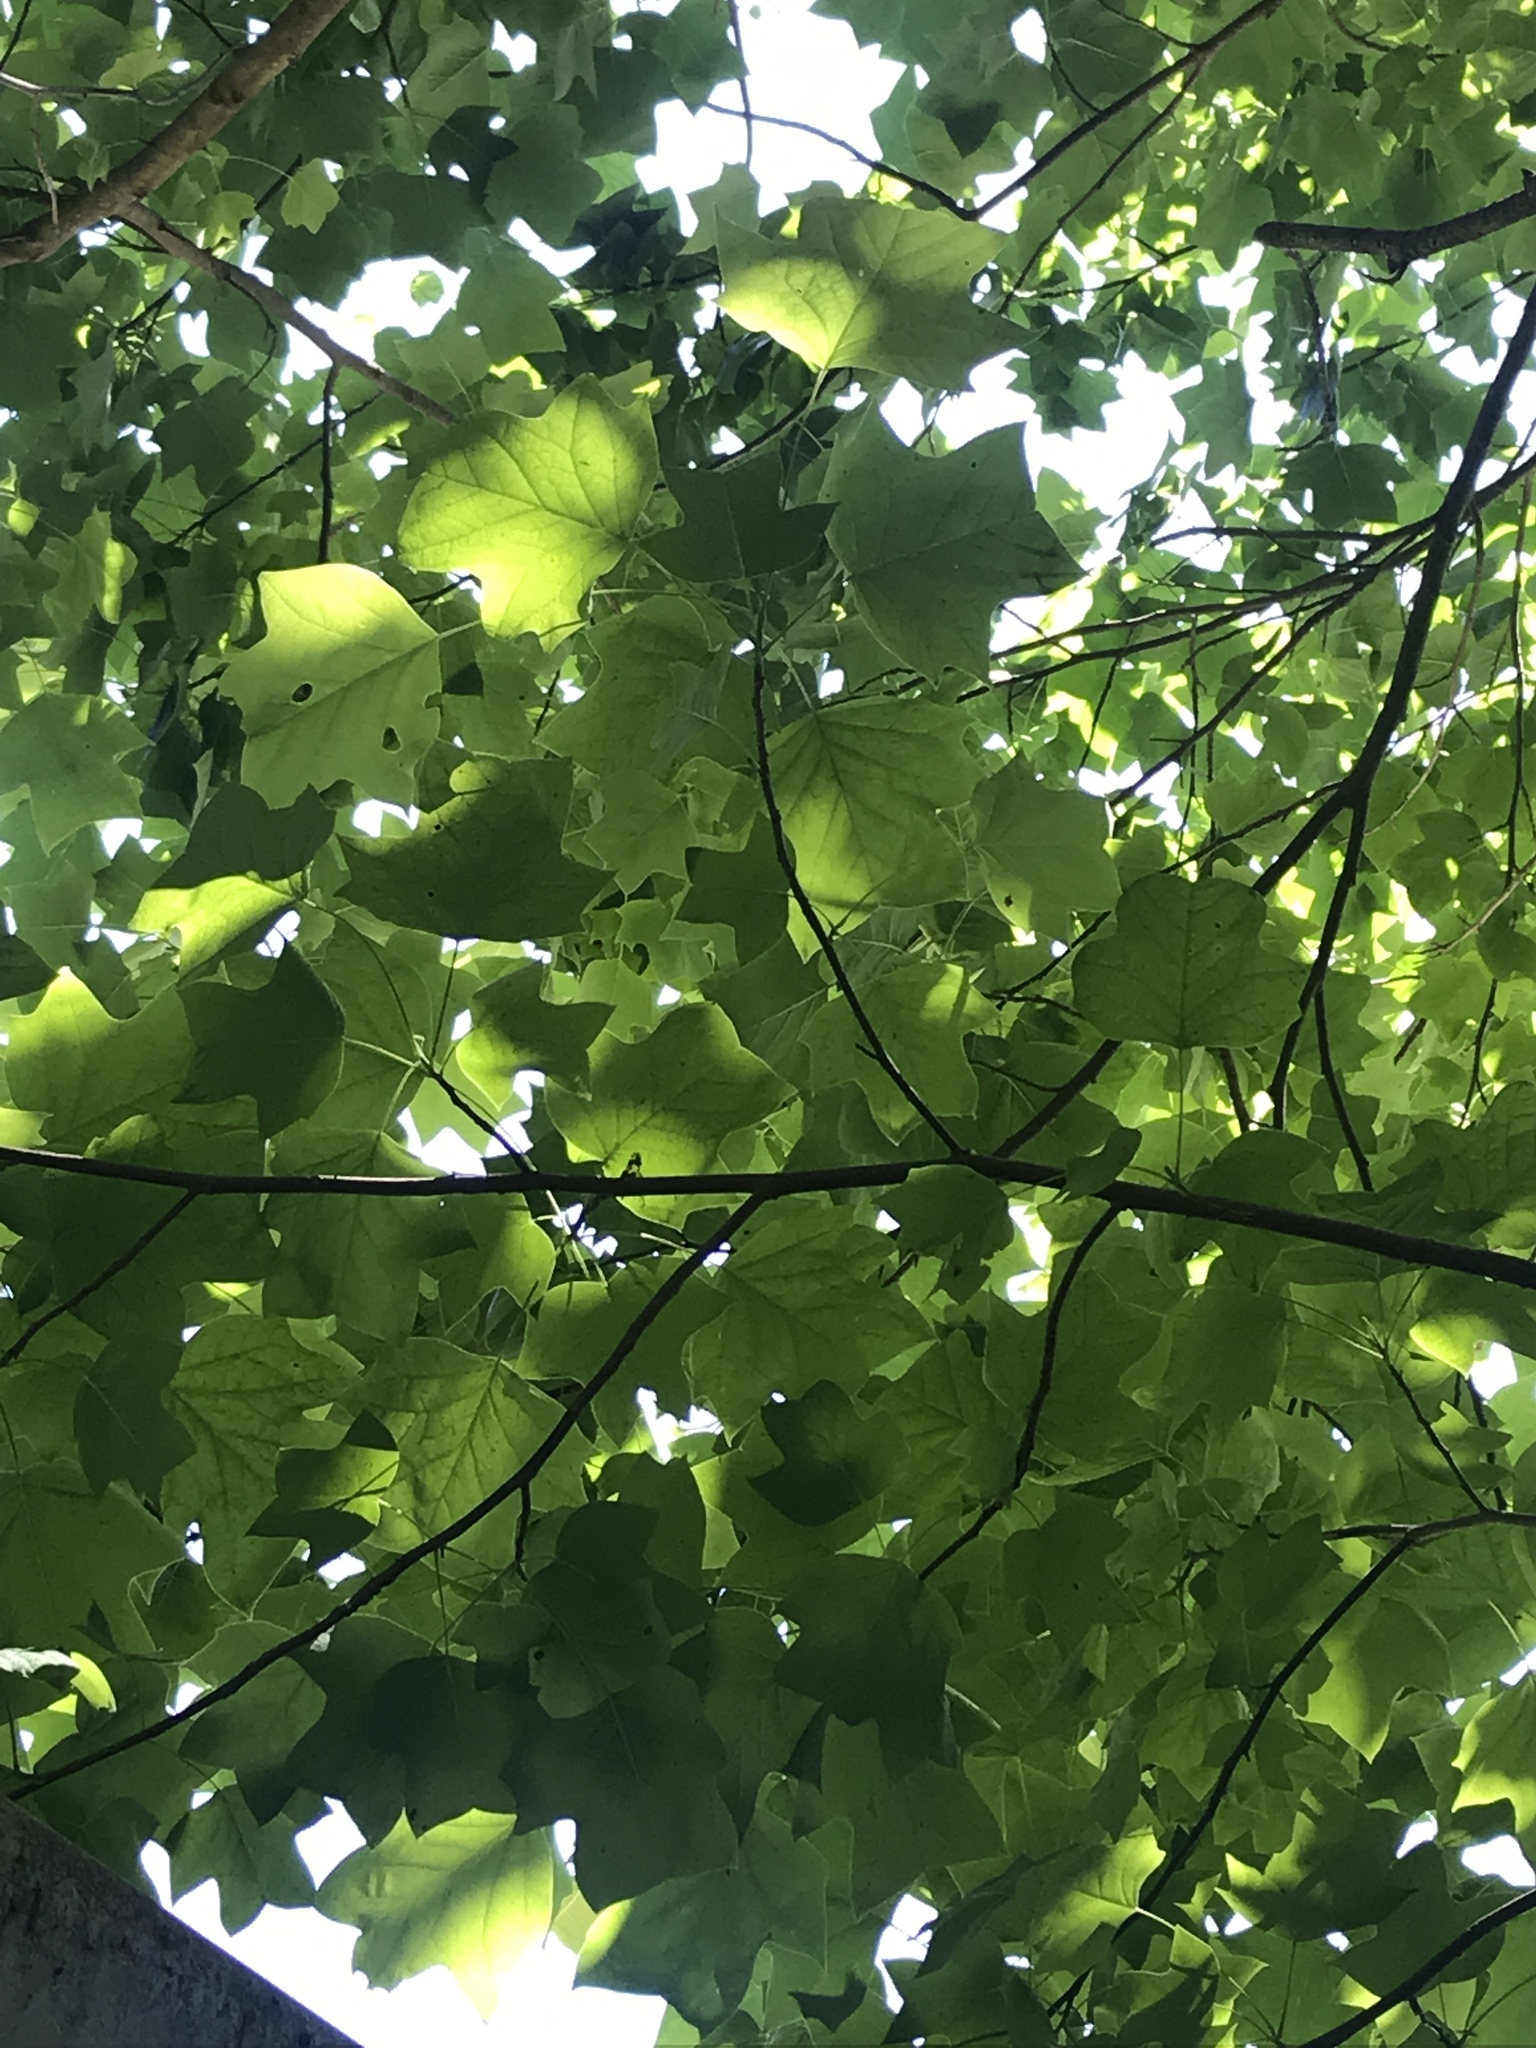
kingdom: Plantae
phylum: Tracheophyta
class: Magnoliopsida
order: Magnoliales
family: Magnoliaceae
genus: Liriodendron
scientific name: Liriodendron tulipifera
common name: Tulip tree
